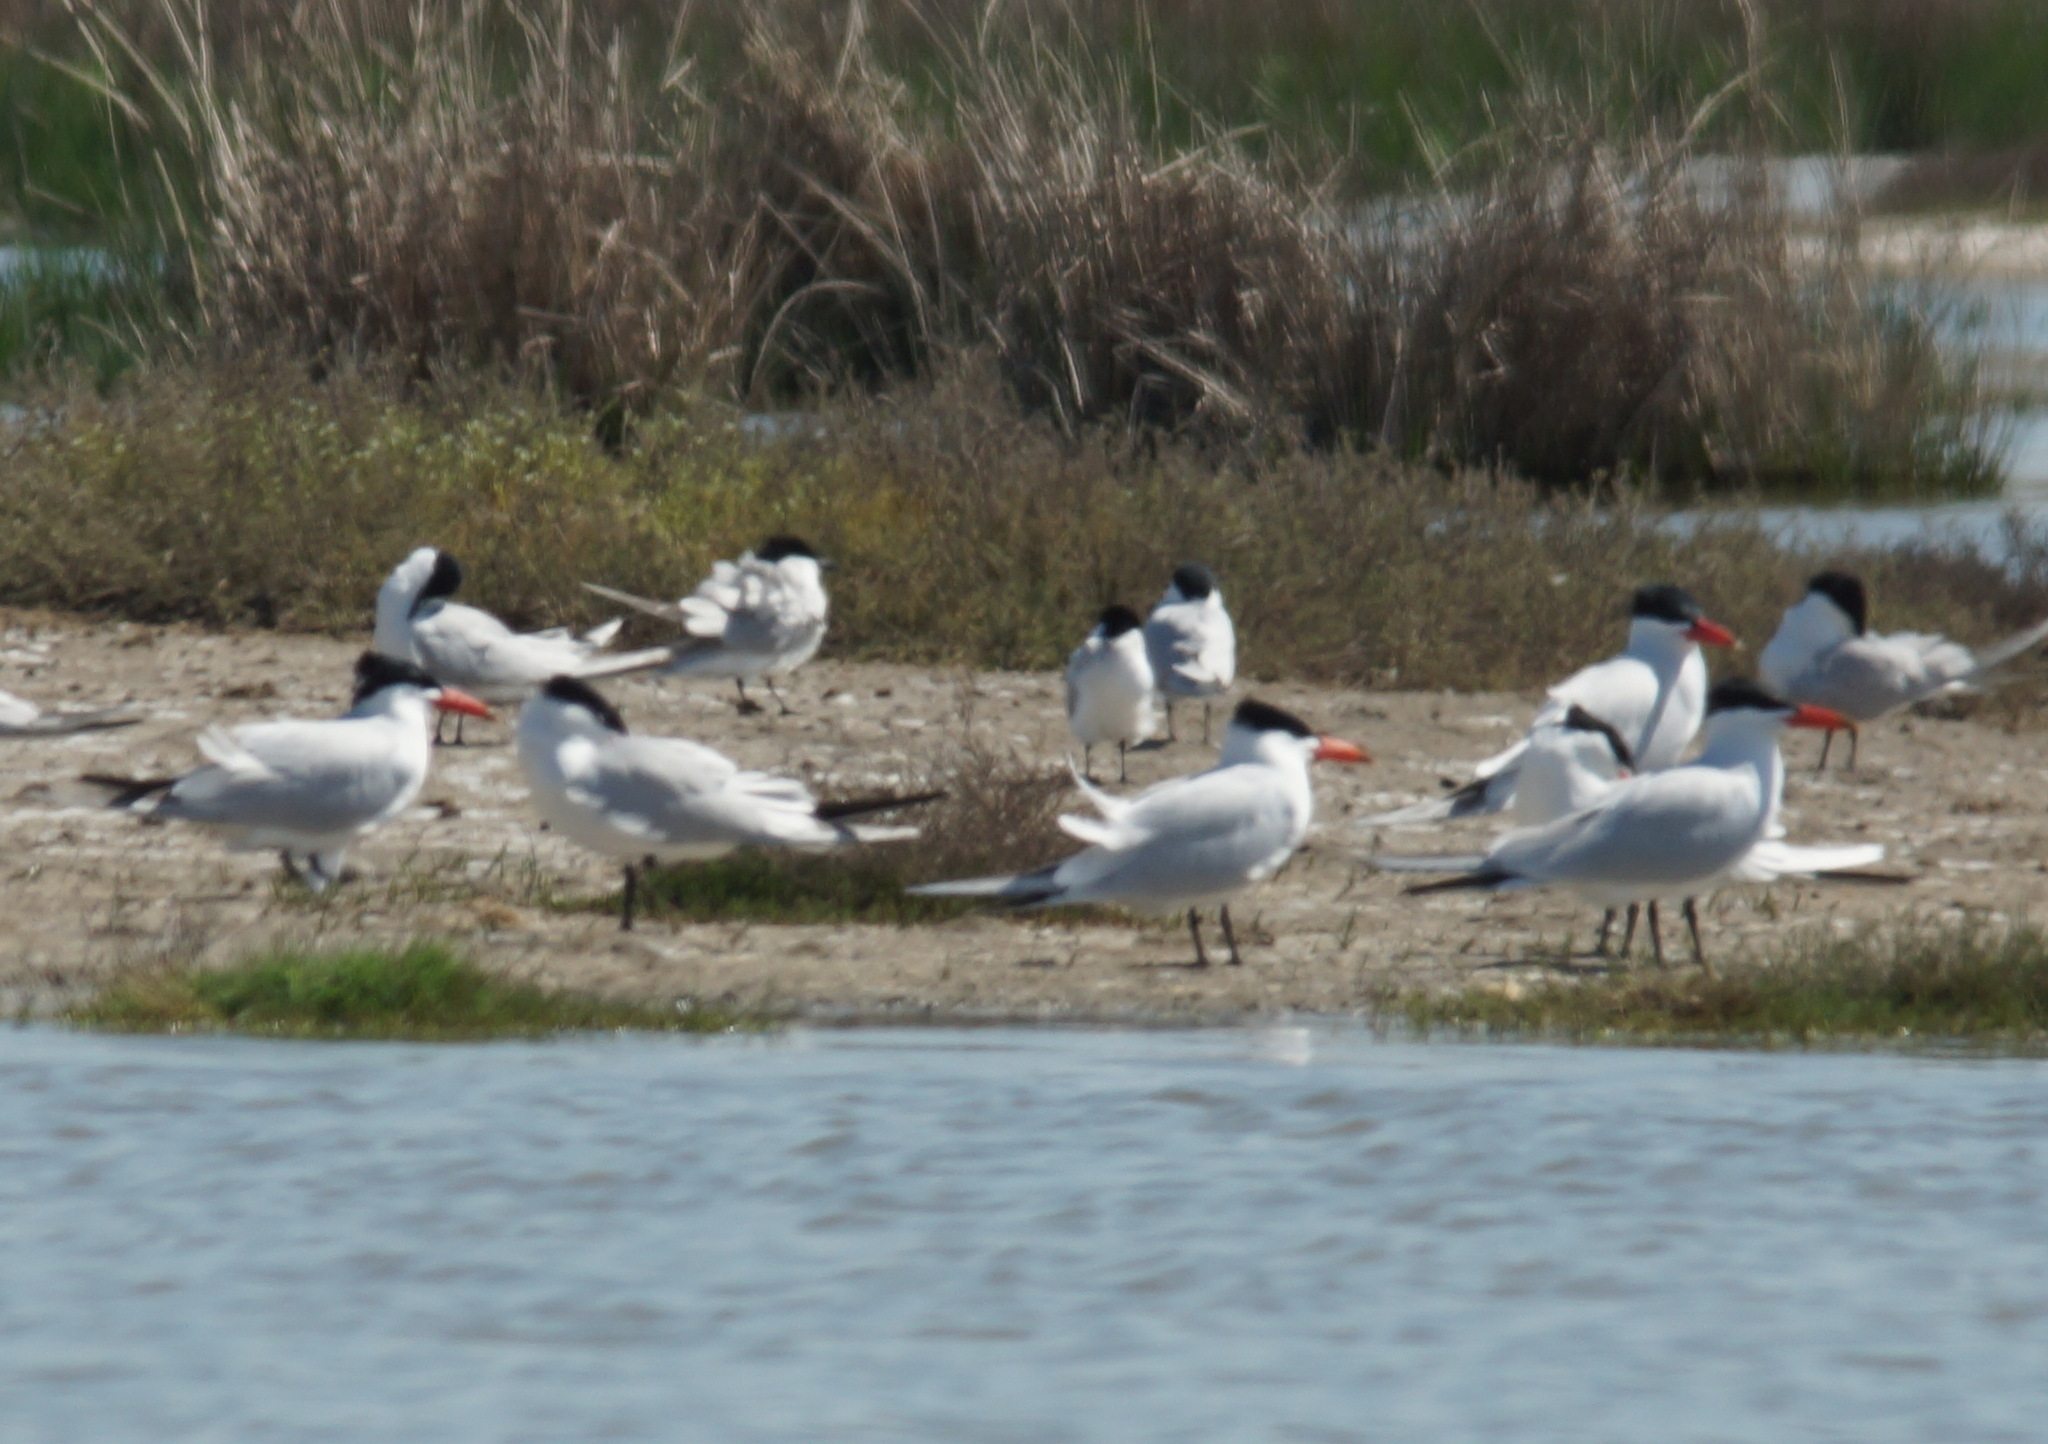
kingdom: Animalia
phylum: Chordata
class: Aves
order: Charadriiformes
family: Laridae
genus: Hydroprogne
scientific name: Hydroprogne caspia
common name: Caspian tern
